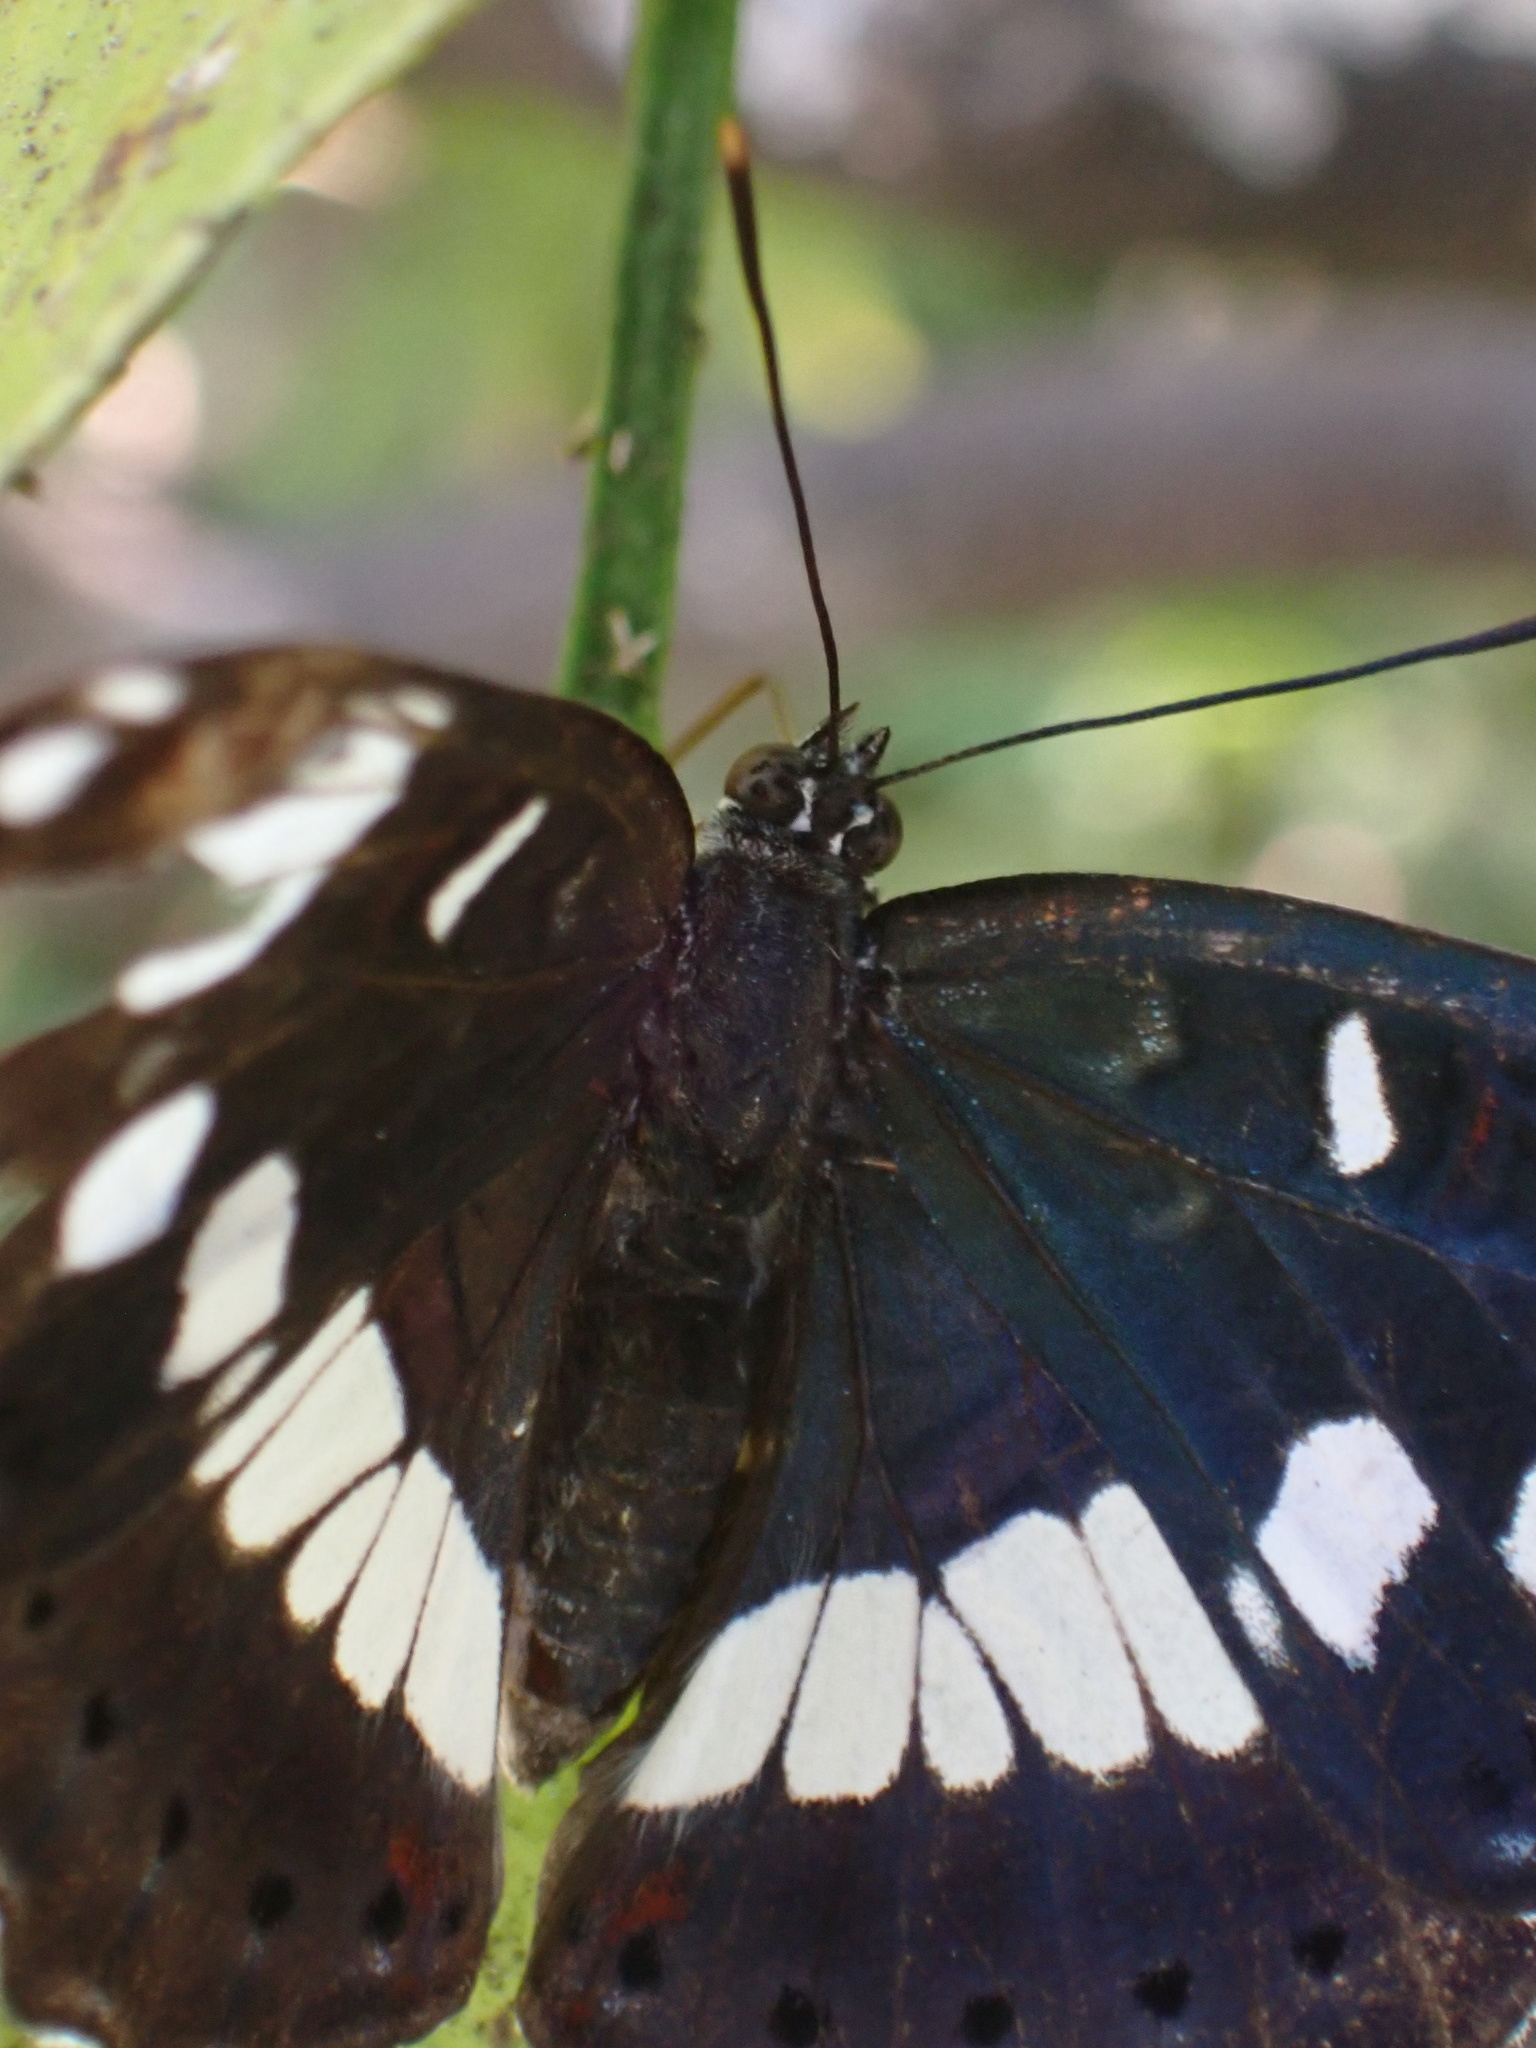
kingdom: Animalia
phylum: Arthropoda
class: Insecta
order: Lepidoptera
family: Nymphalidae
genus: Limenitis
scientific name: Limenitis reducta
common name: Southern white admiral
